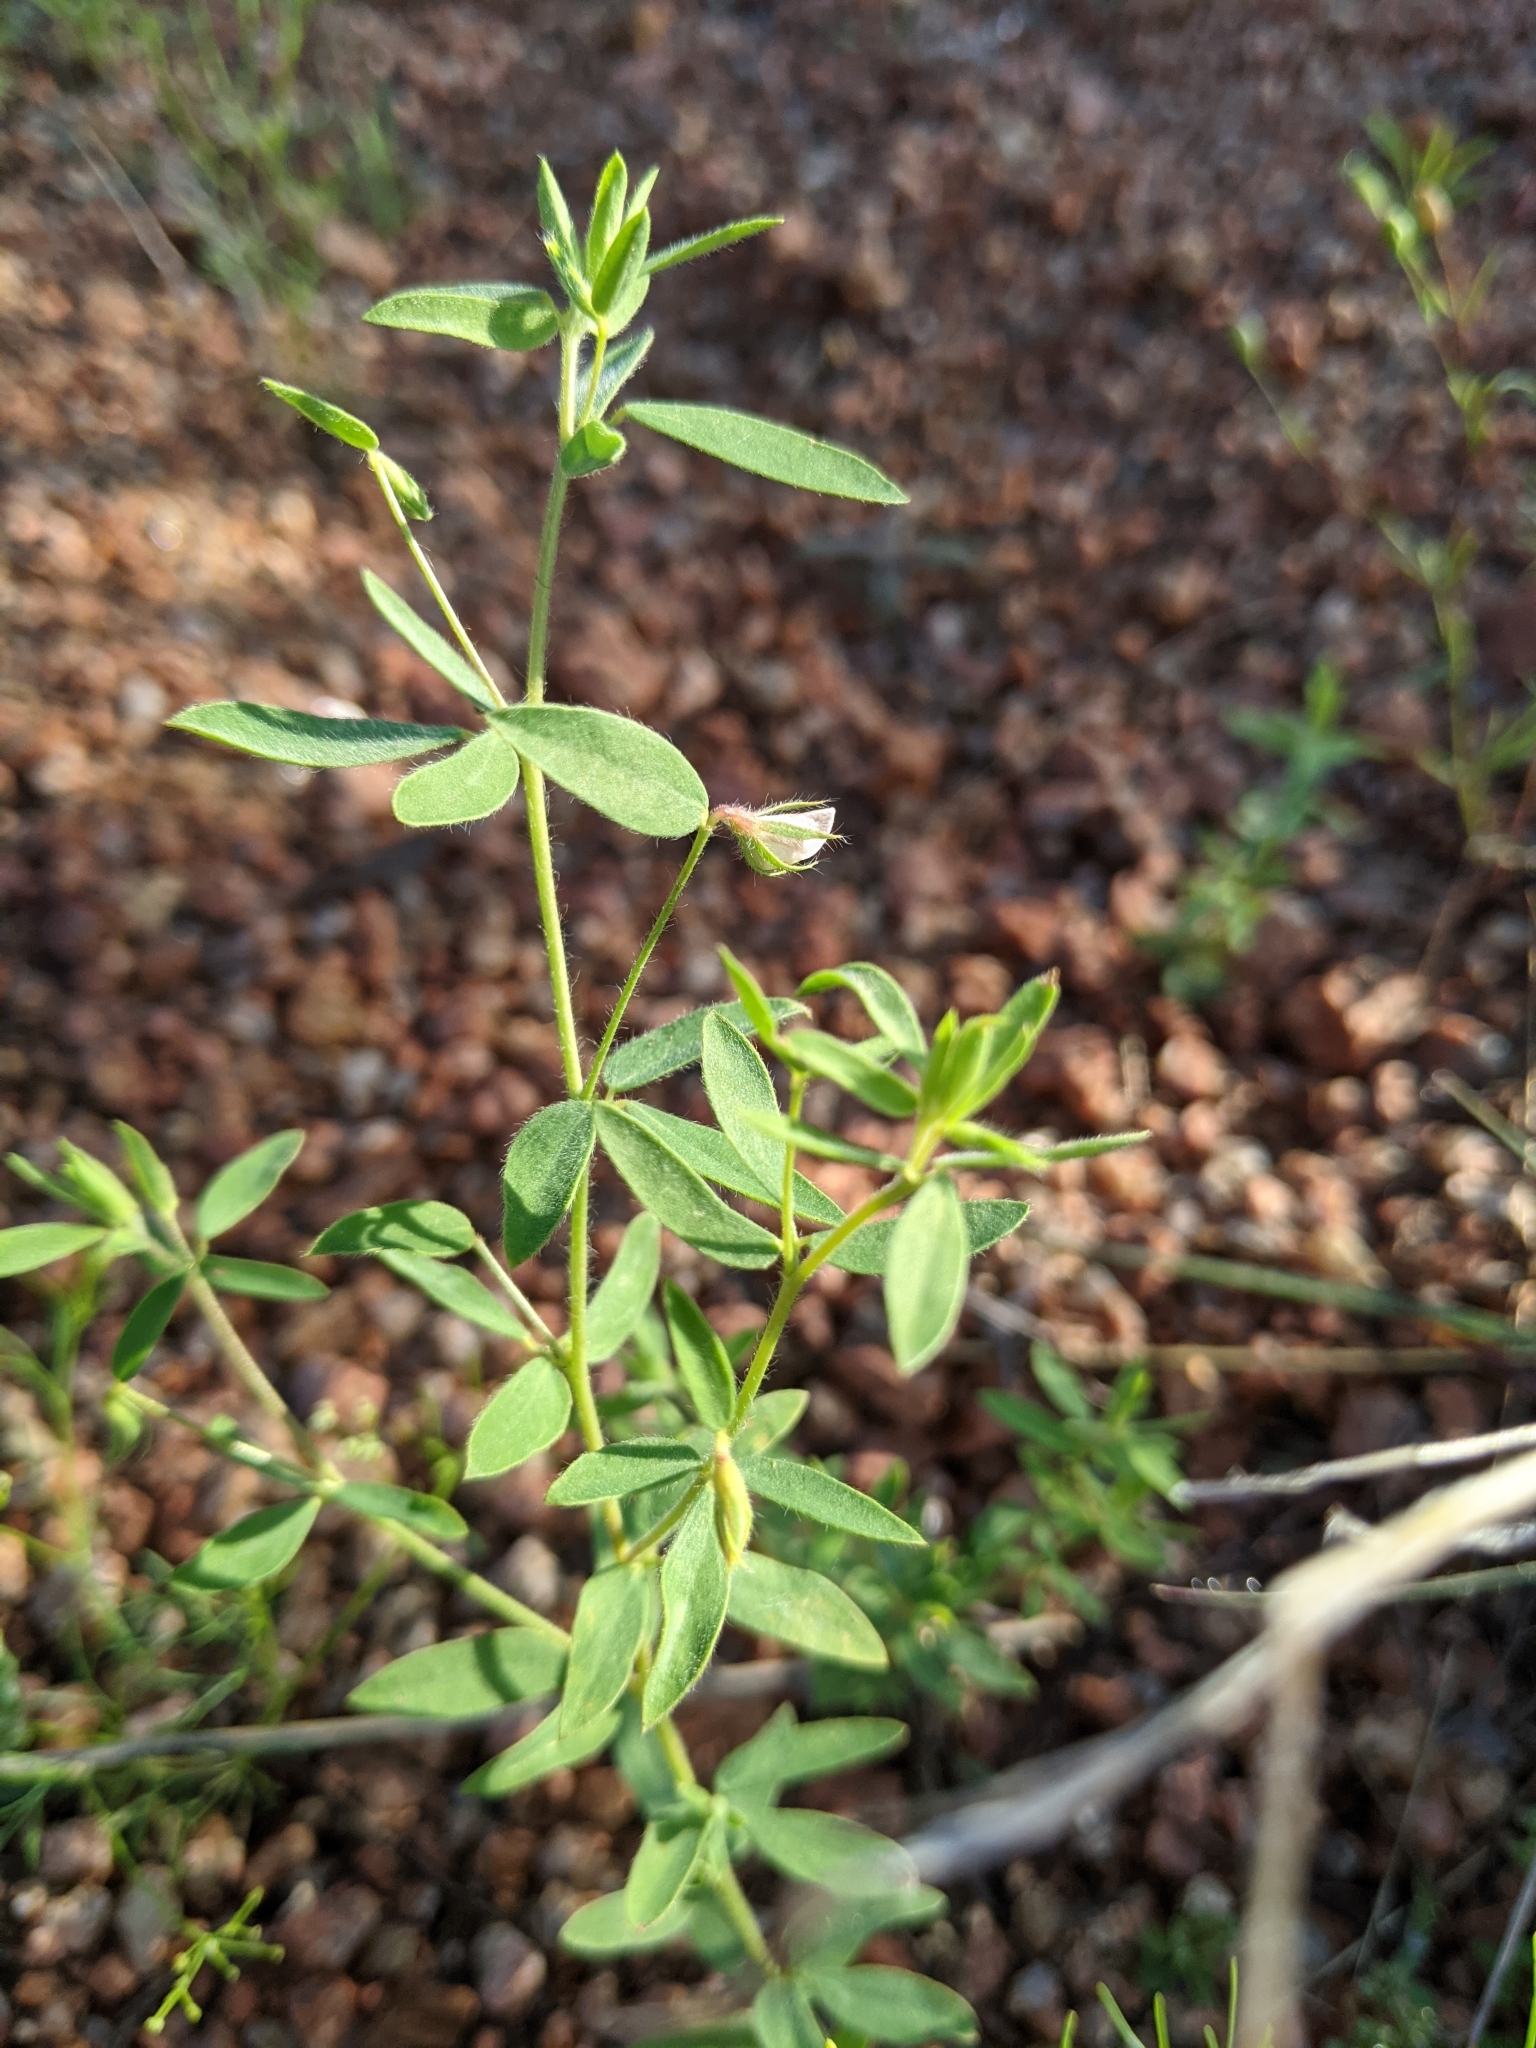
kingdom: Plantae
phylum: Tracheophyta
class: Magnoliopsida
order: Fabales
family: Fabaceae
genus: Acmispon
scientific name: Acmispon americanus
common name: American bird's-foot trefoil
